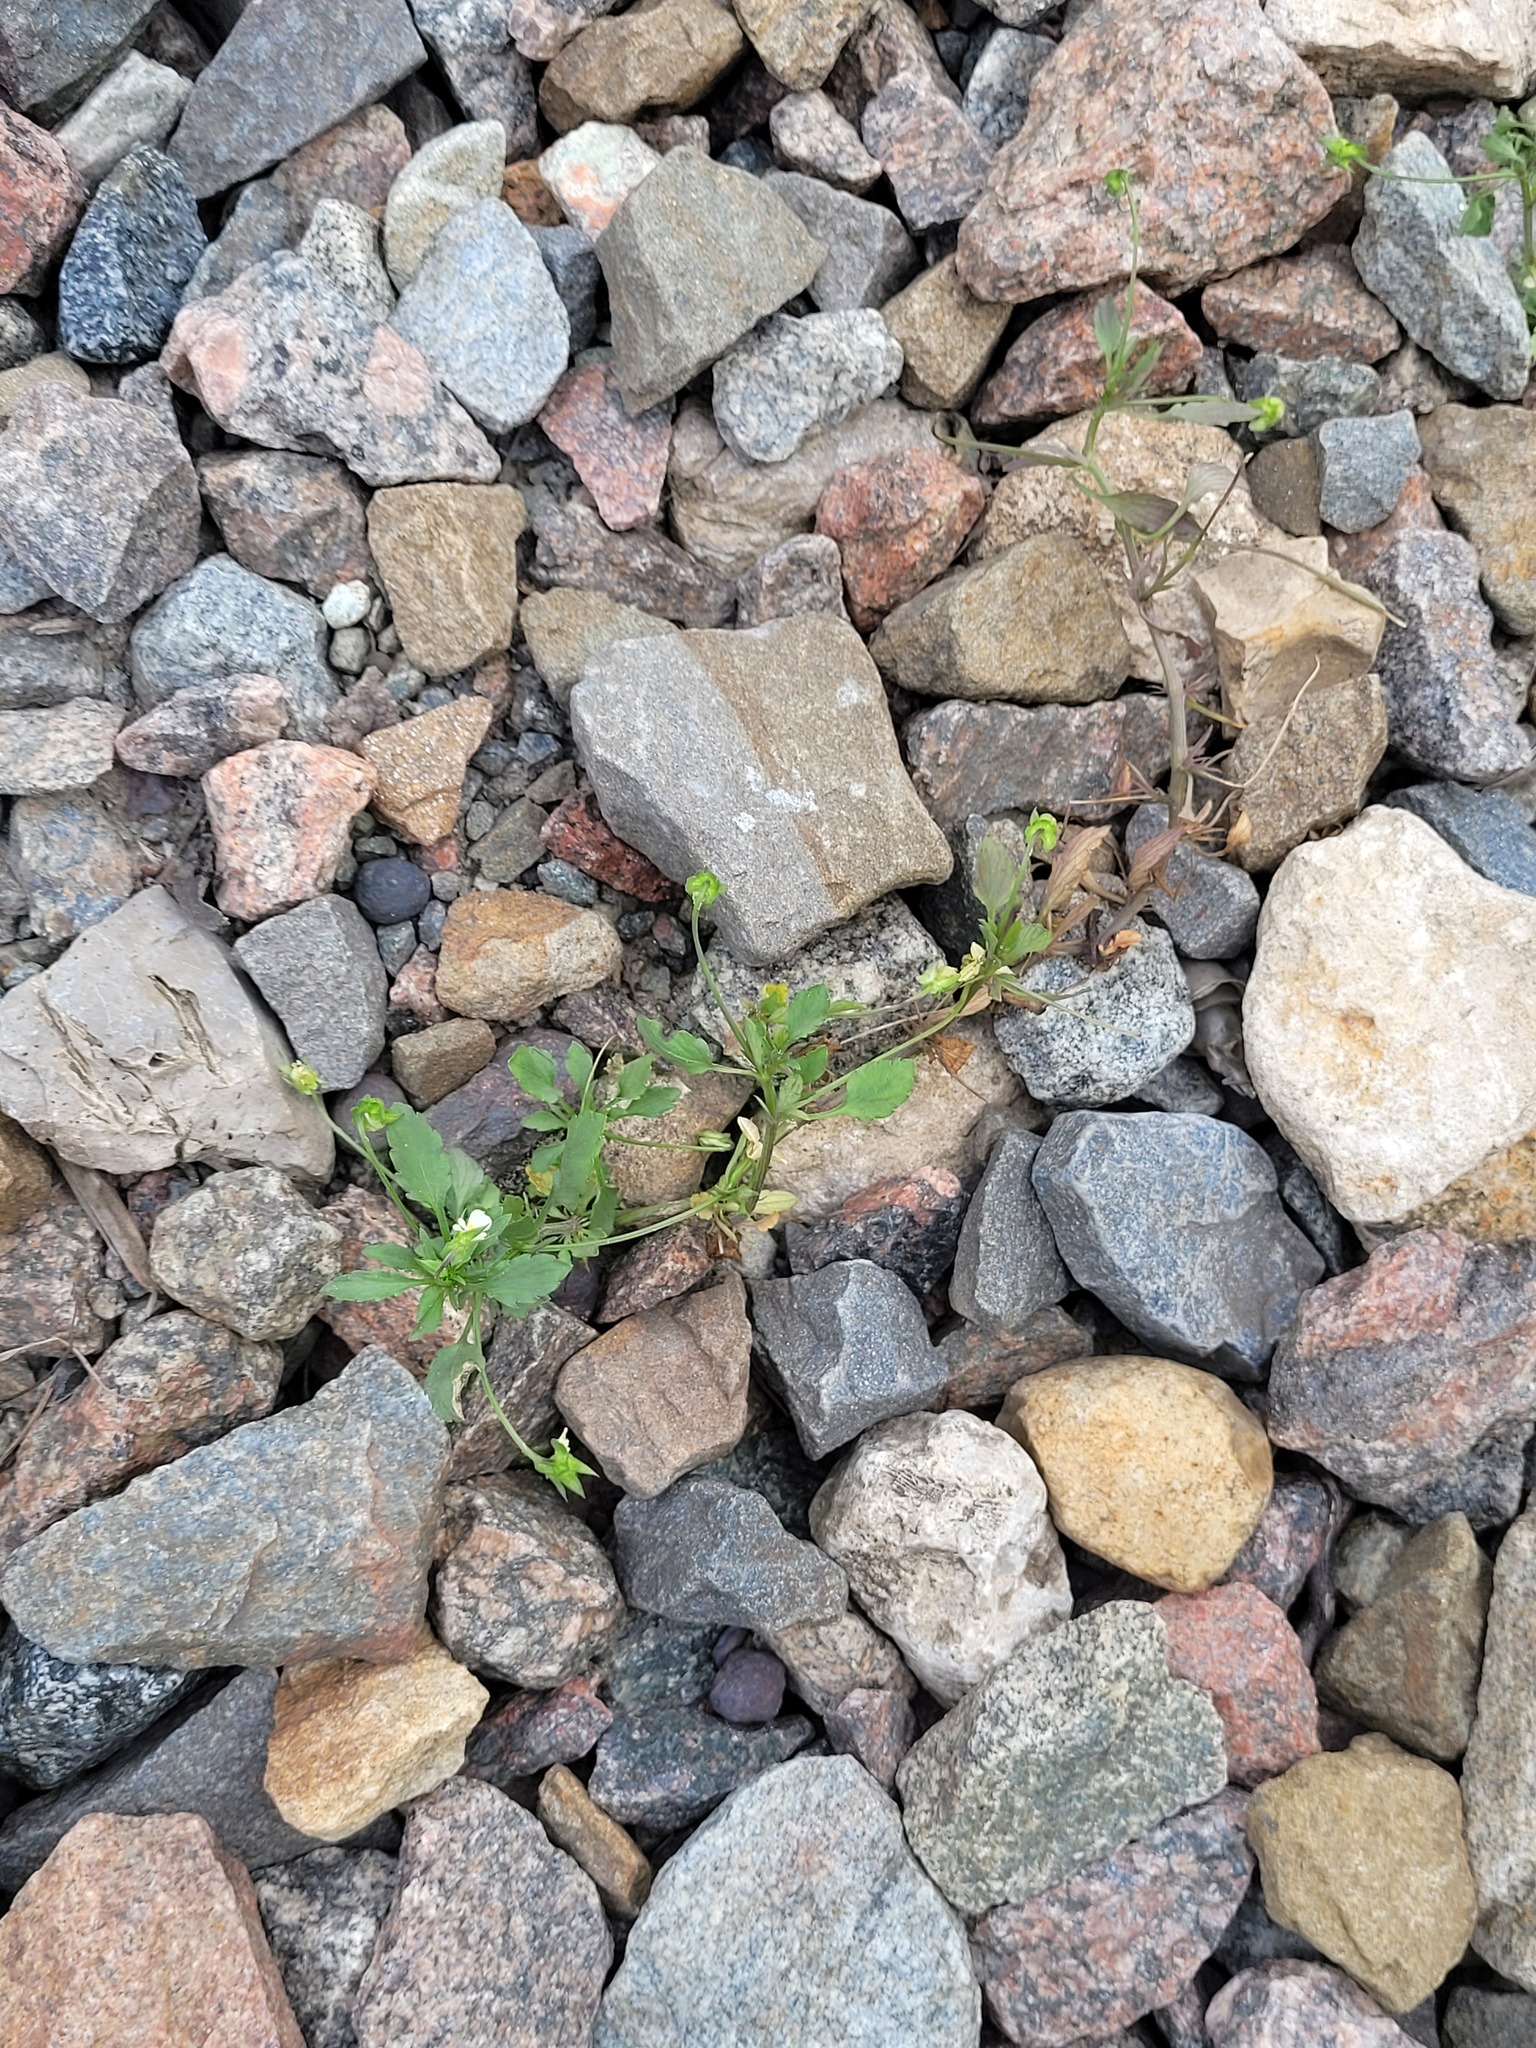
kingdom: Plantae
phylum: Tracheophyta
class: Magnoliopsida
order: Malpighiales
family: Violaceae
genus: Viola
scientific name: Viola arvensis
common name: Field pansy
